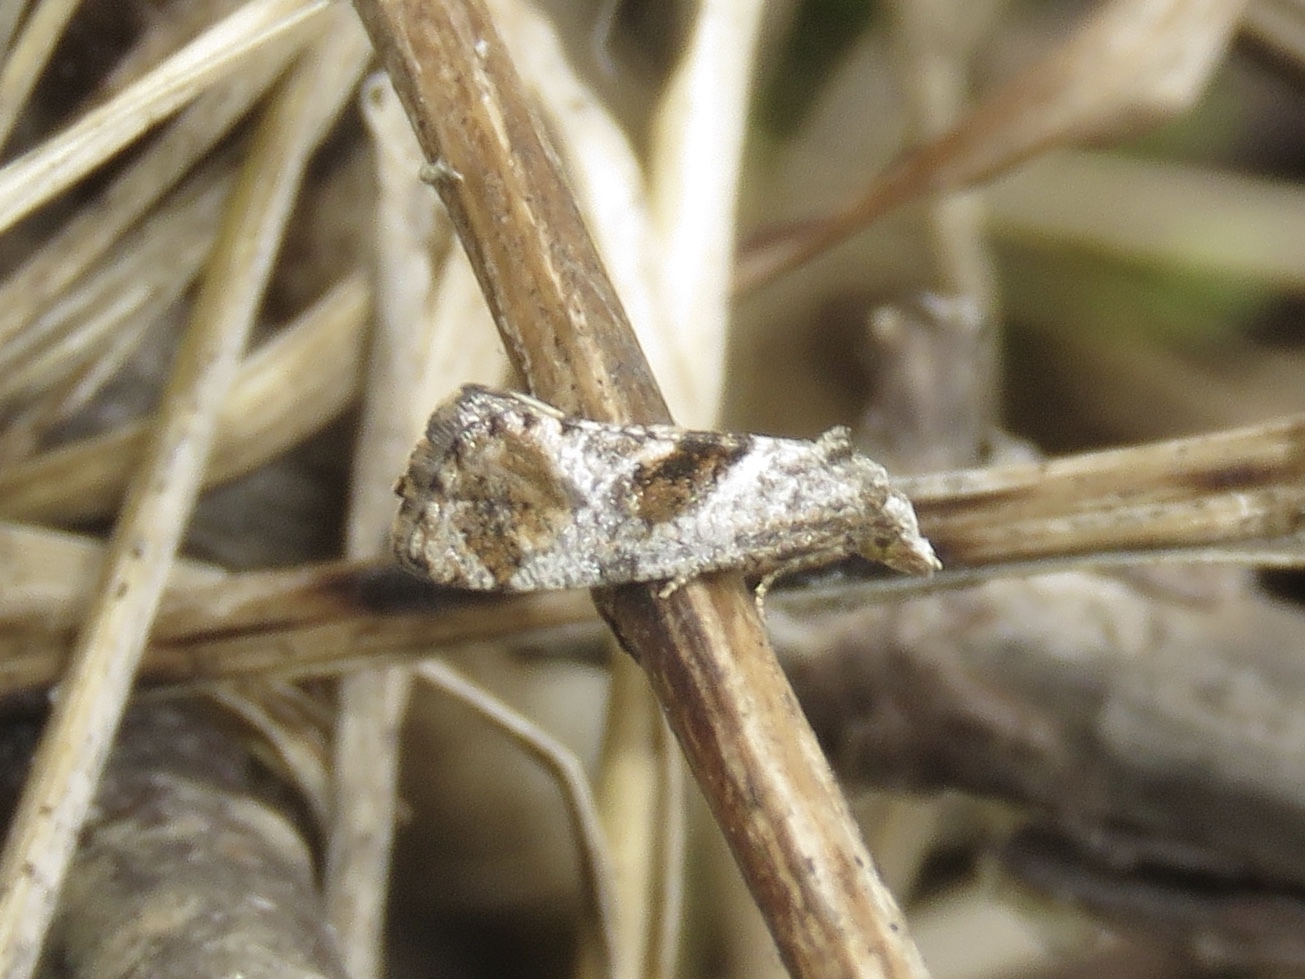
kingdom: Animalia
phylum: Arthropoda
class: Insecta
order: Lepidoptera
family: Tortricidae
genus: Cochylis
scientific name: Cochylis Cochylichroa temerana
